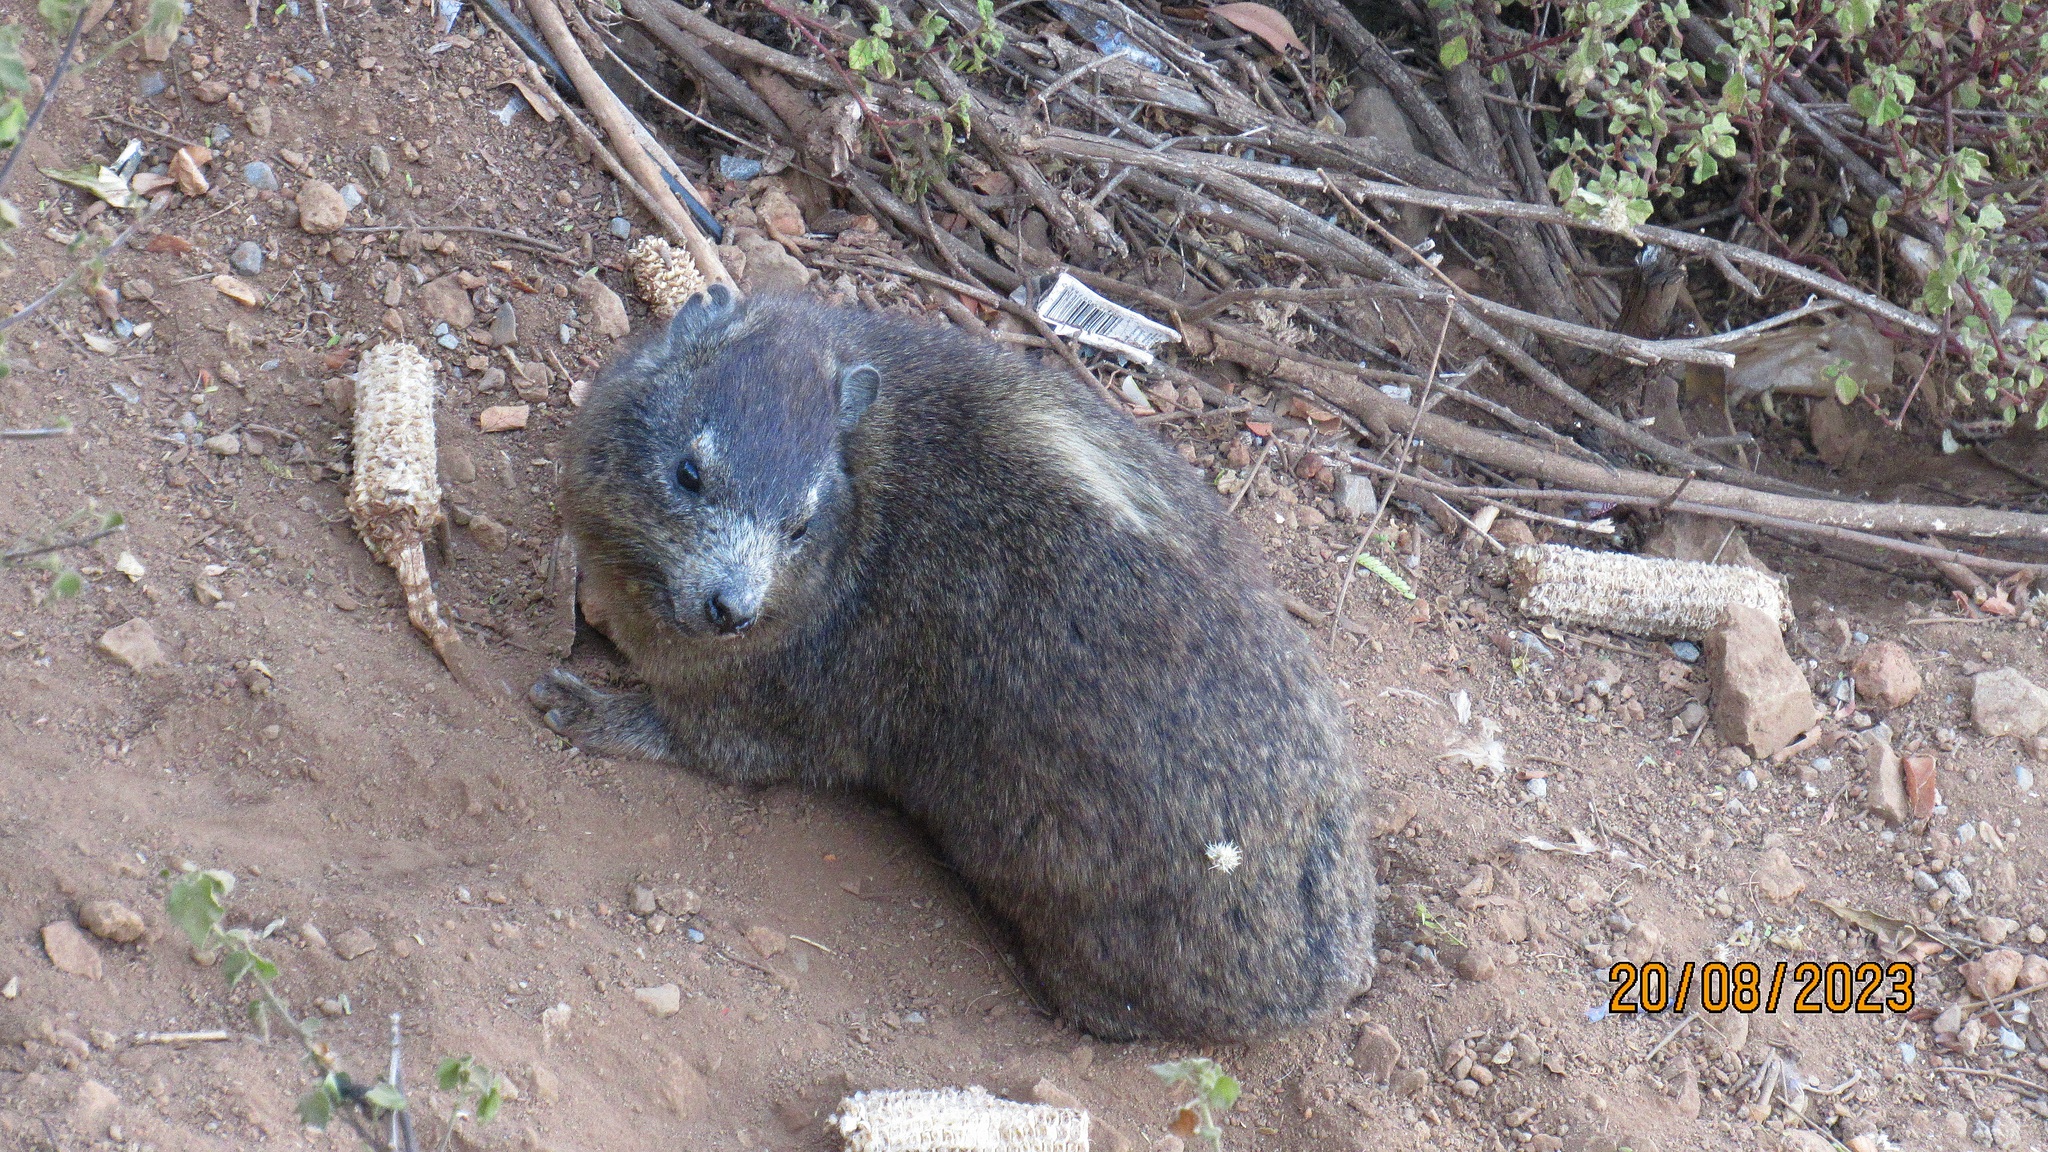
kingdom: Animalia
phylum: Chordata
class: Mammalia
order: Hyracoidea
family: Procaviidae
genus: Procavia
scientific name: Procavia capensis
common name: Rock hyrax
